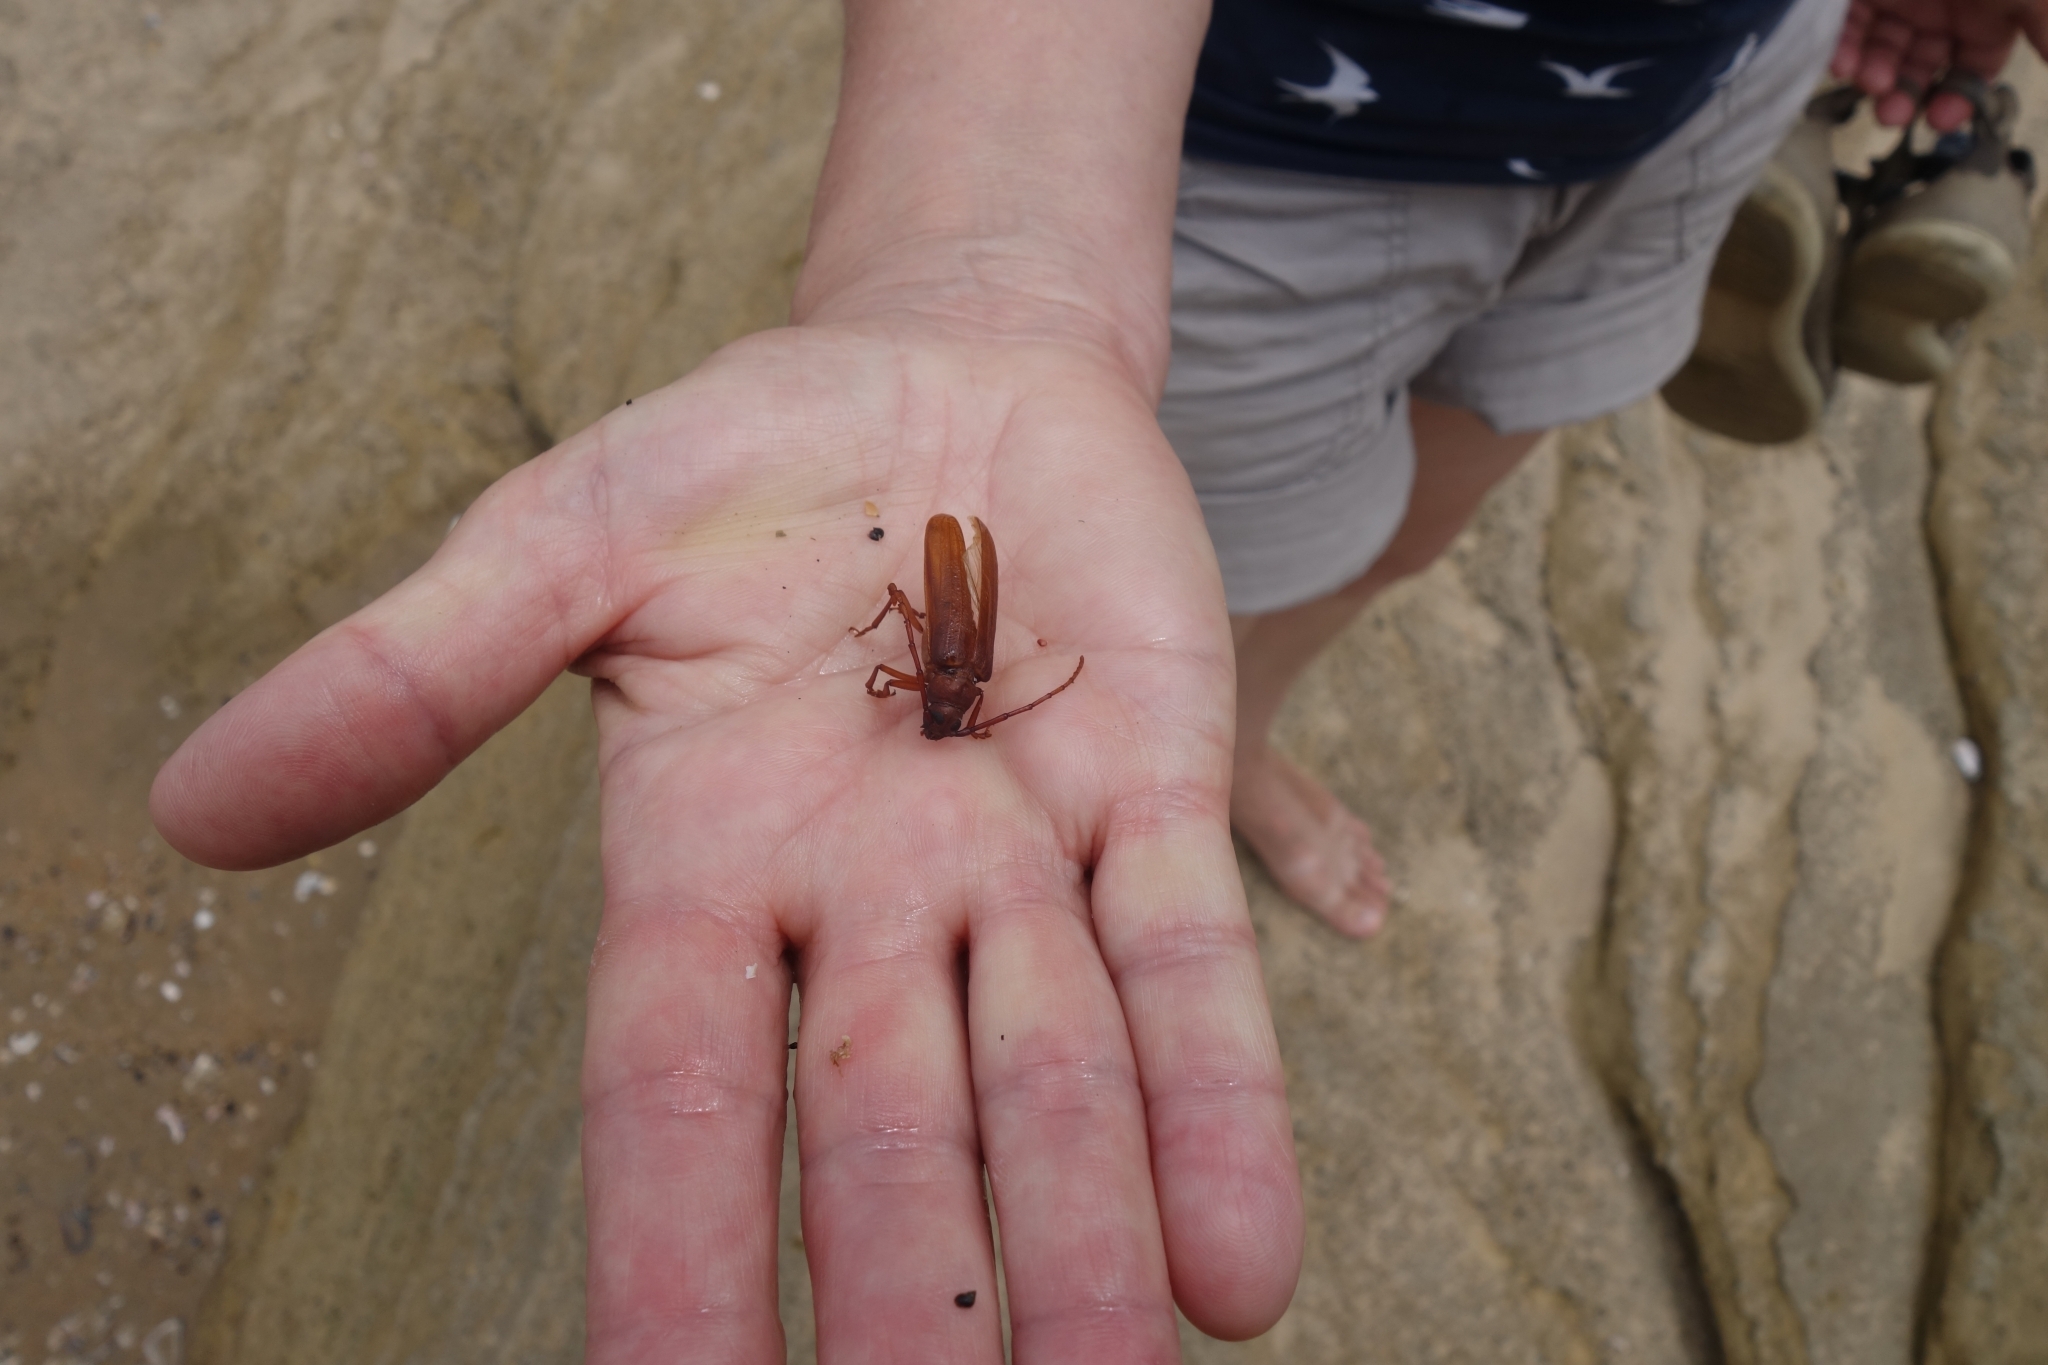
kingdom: Animalia
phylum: Arthropoda
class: Insecta
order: Coleoptera
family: Cerambycidae
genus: Delocheilus
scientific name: Delocheilus obscurus
